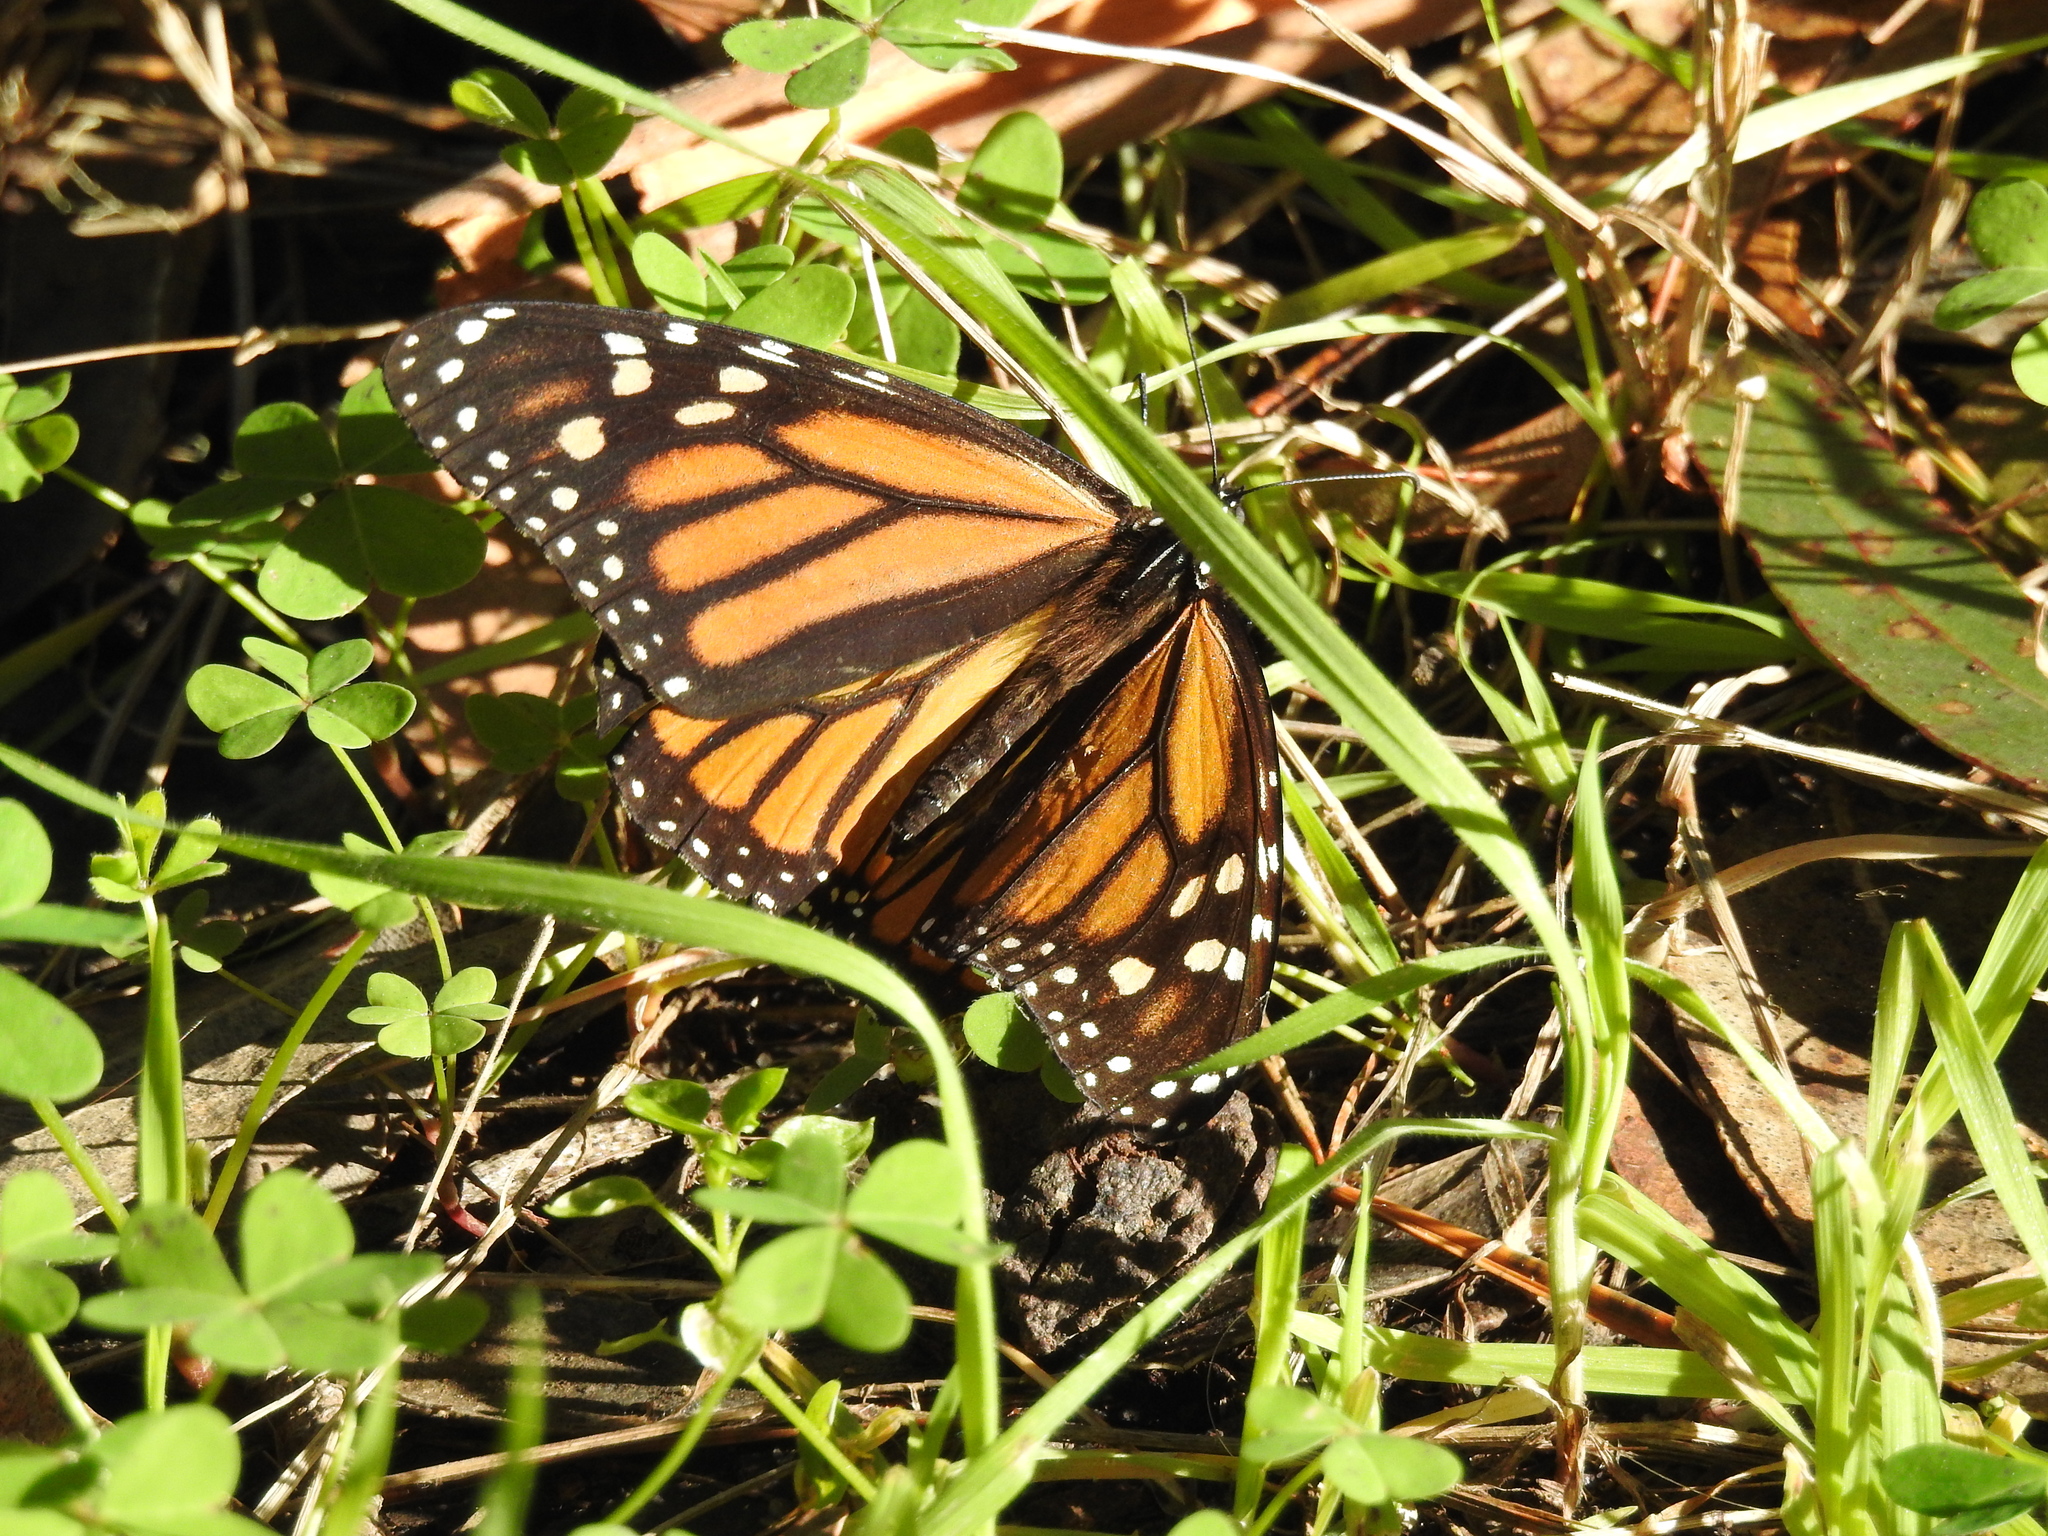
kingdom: Animalia
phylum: Arthropoda
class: Insecta
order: Lepidoptera
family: Nymphalidae
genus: Danaus
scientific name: Danaus plexippus
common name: Monarch
